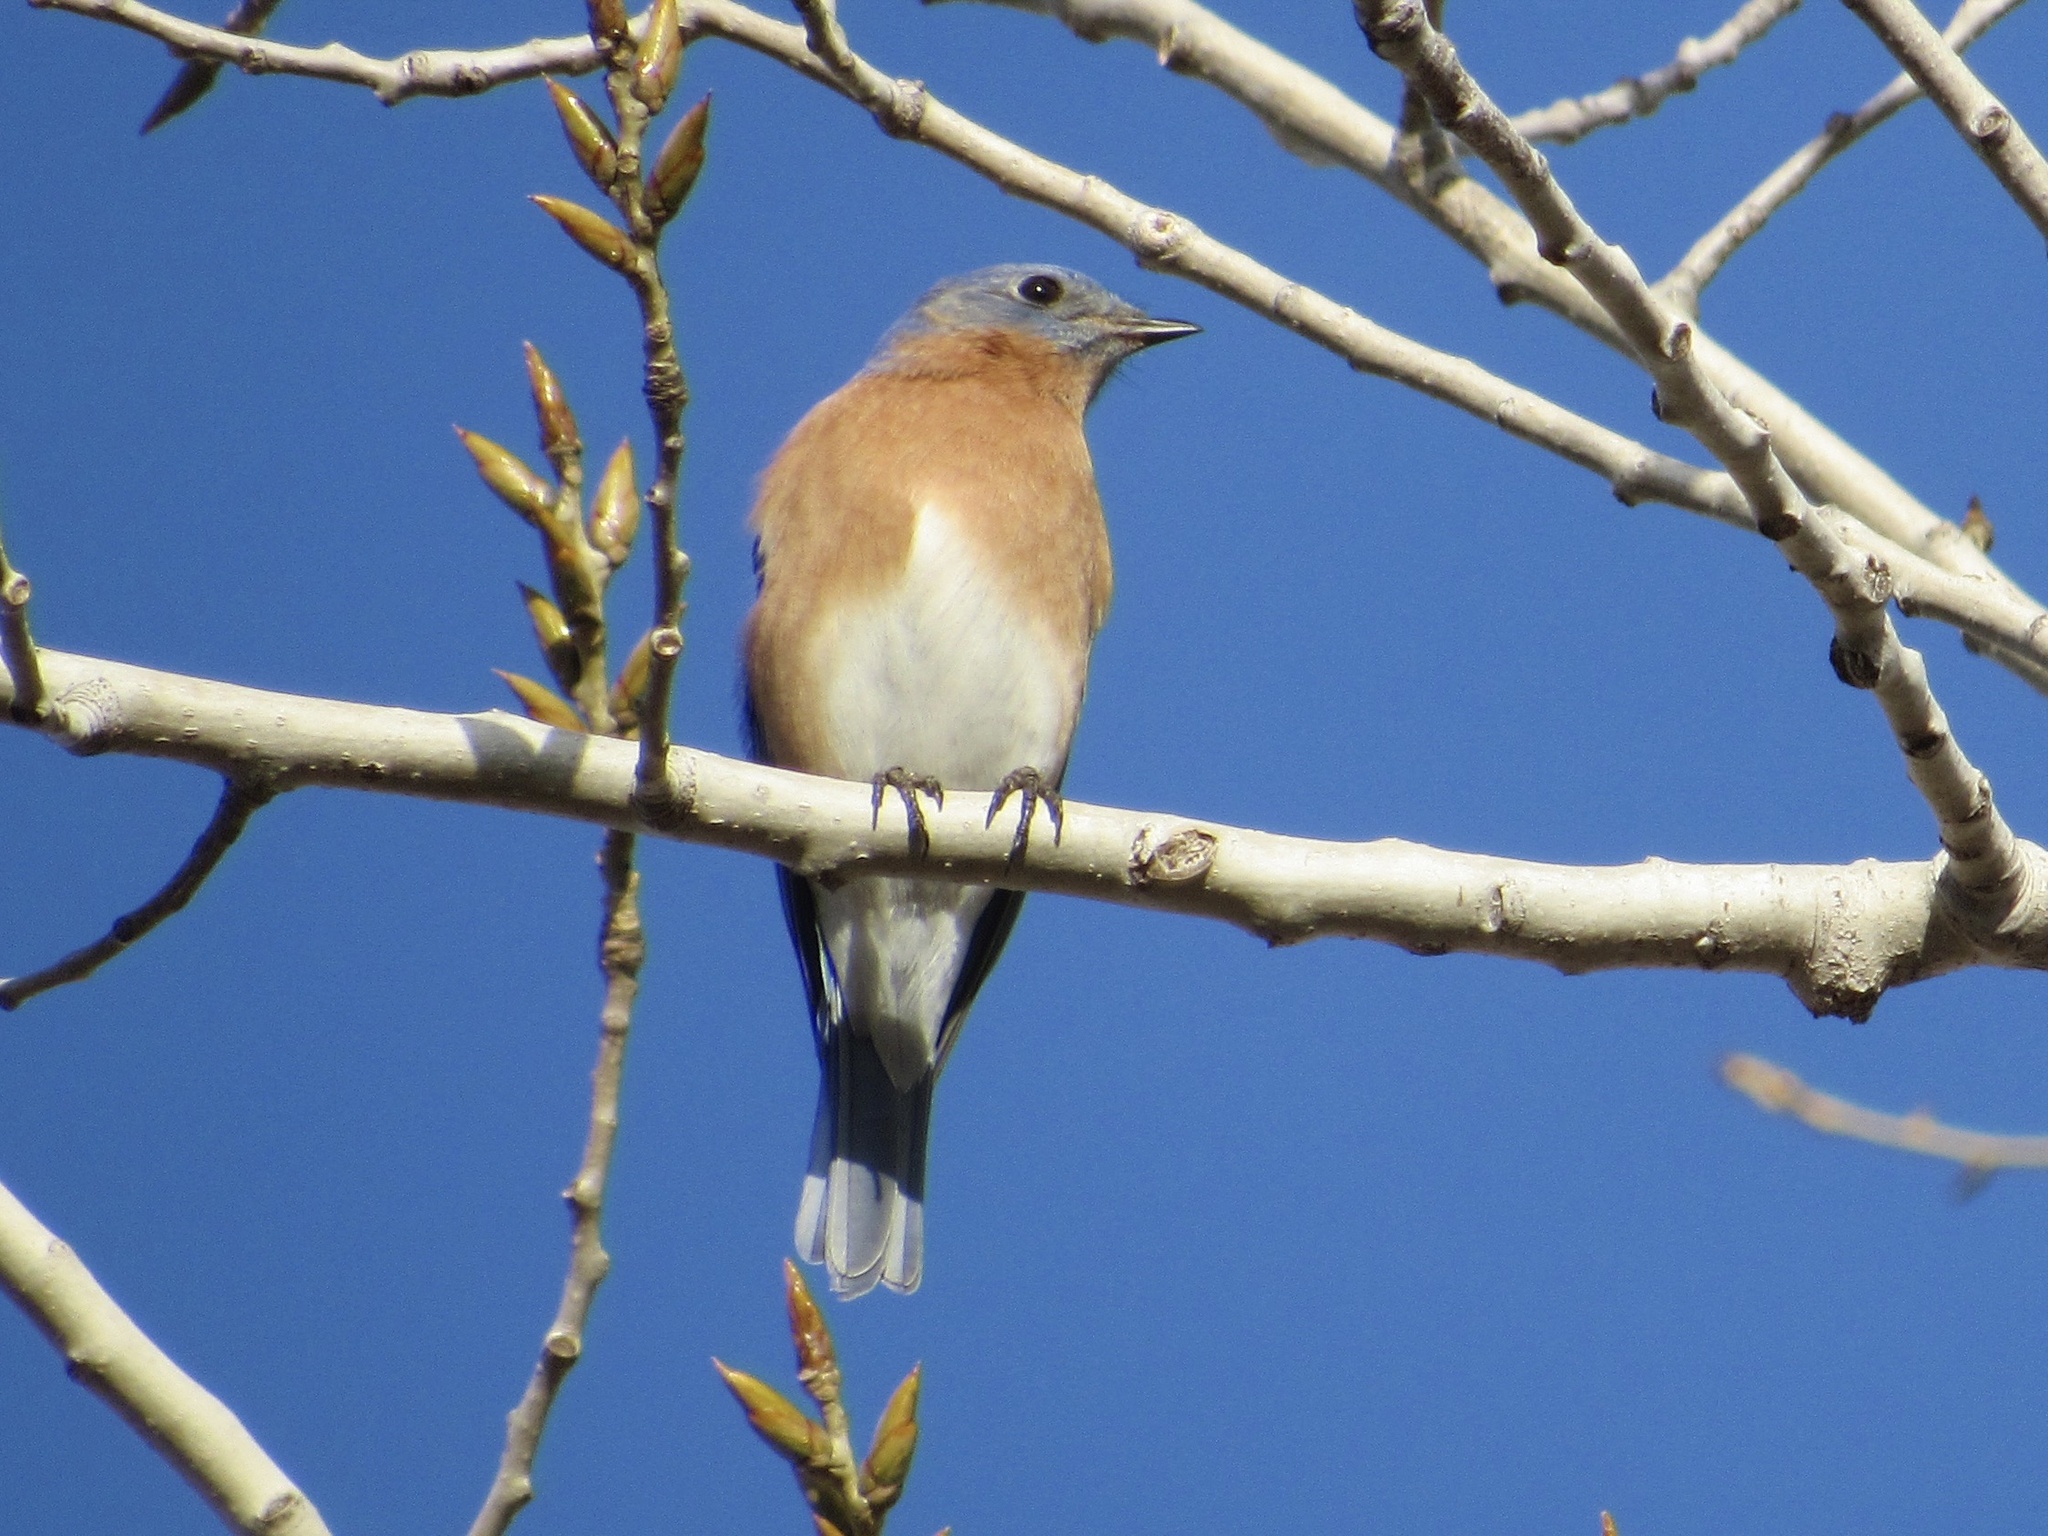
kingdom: Animalia
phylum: Chordata
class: Aves
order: Passeriformes
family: Turdidae
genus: Sialia
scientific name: Sialia sialis
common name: Eastern bluebird
